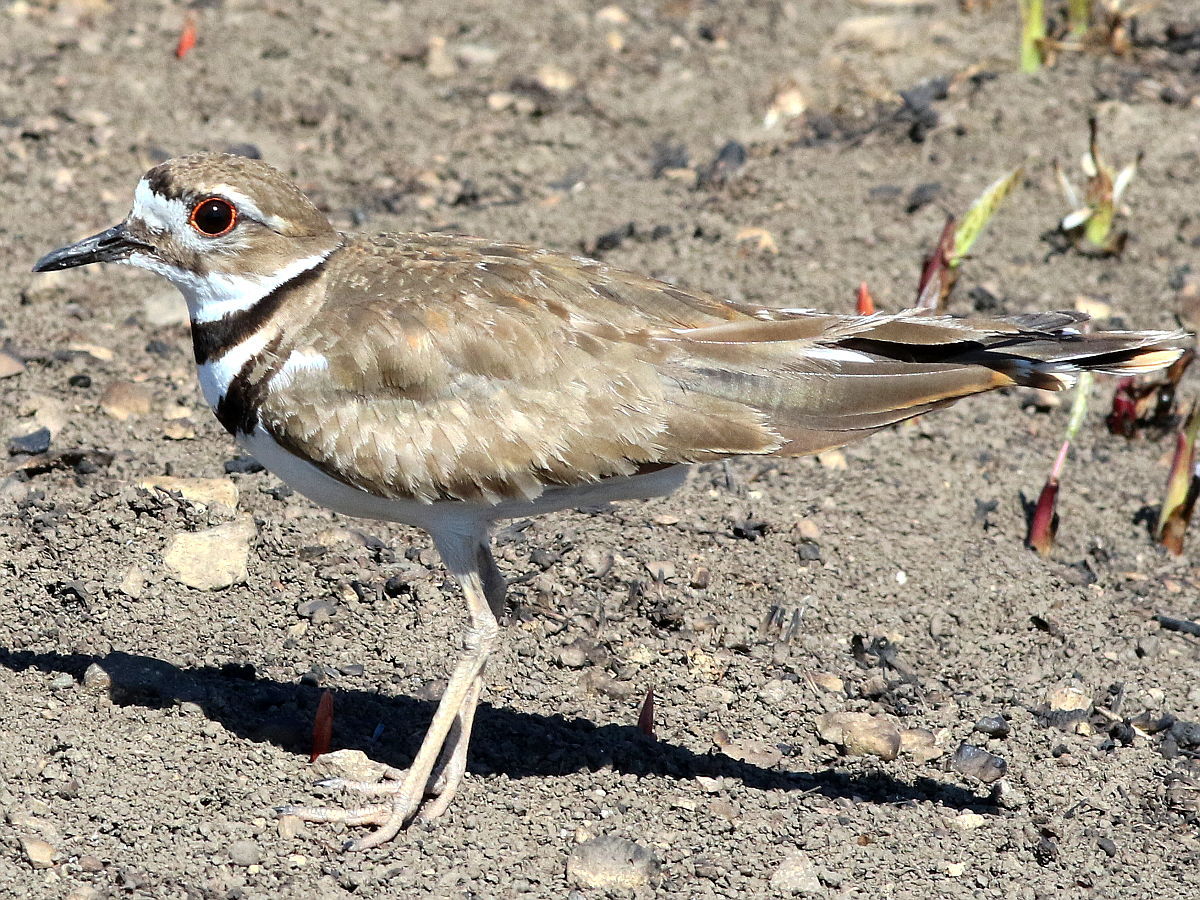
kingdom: Animalia
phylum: Chordata
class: Aves
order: Charadriiformes
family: Charadriidae
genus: Charadrius
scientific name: Charadrius vociferus
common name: Killdeer
